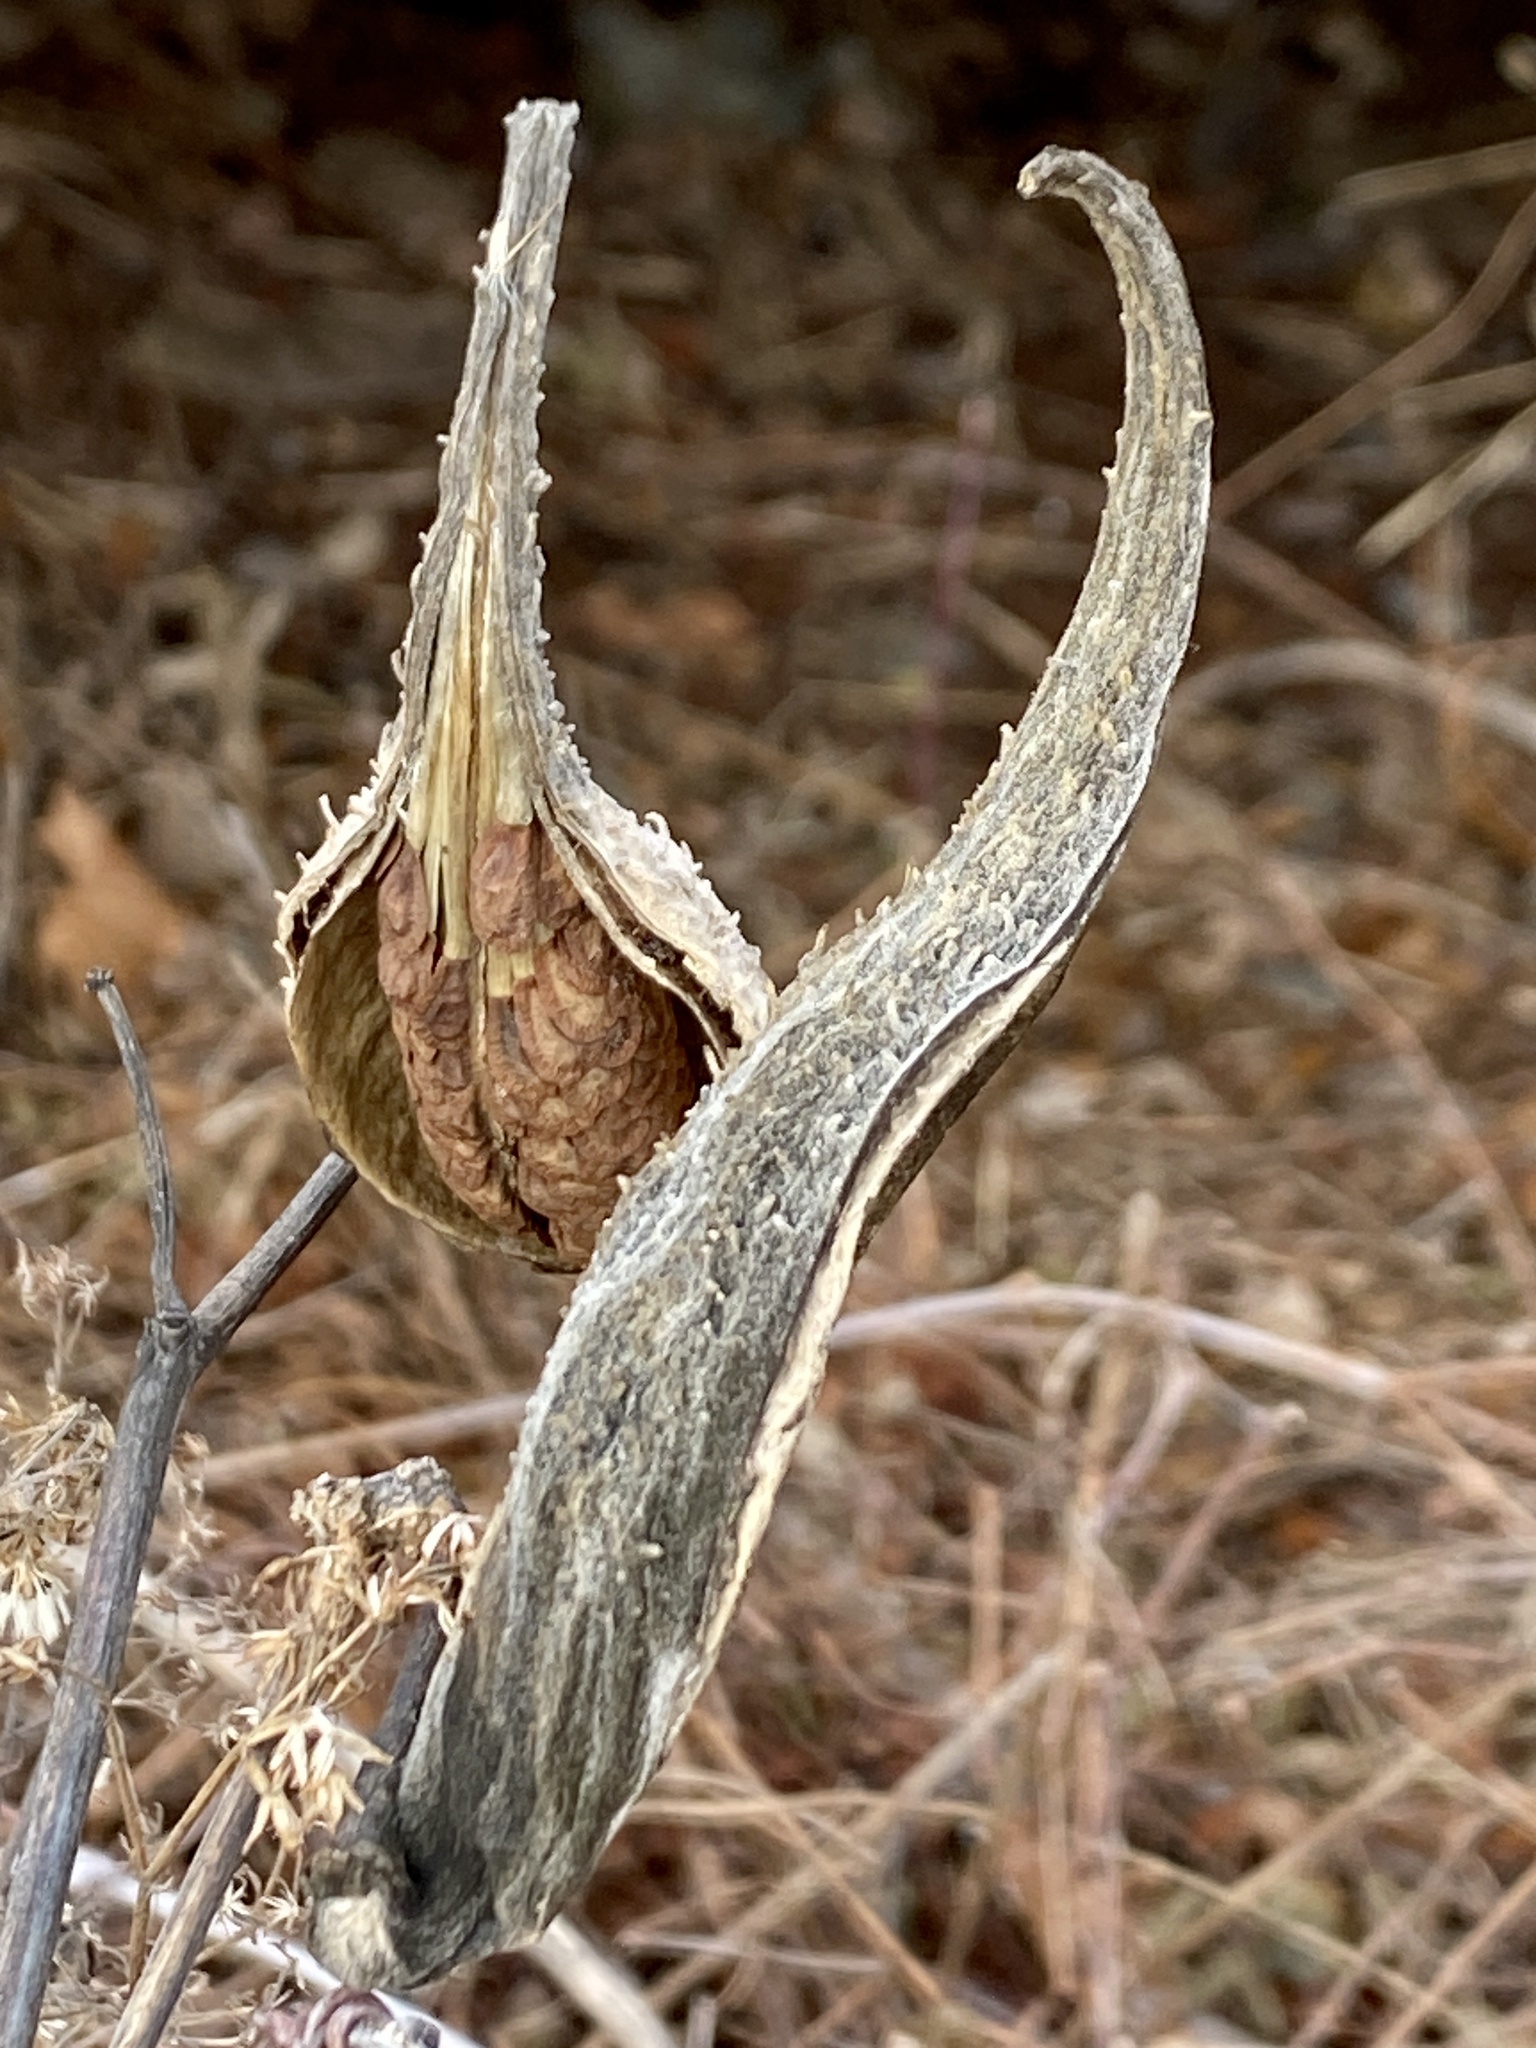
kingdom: Plantae
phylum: Tracheophyta
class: Magnoliopsida
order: Gentianales
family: Apocynaceae
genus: Asclepias
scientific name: Asclepias syriaca
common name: Common milkweed
